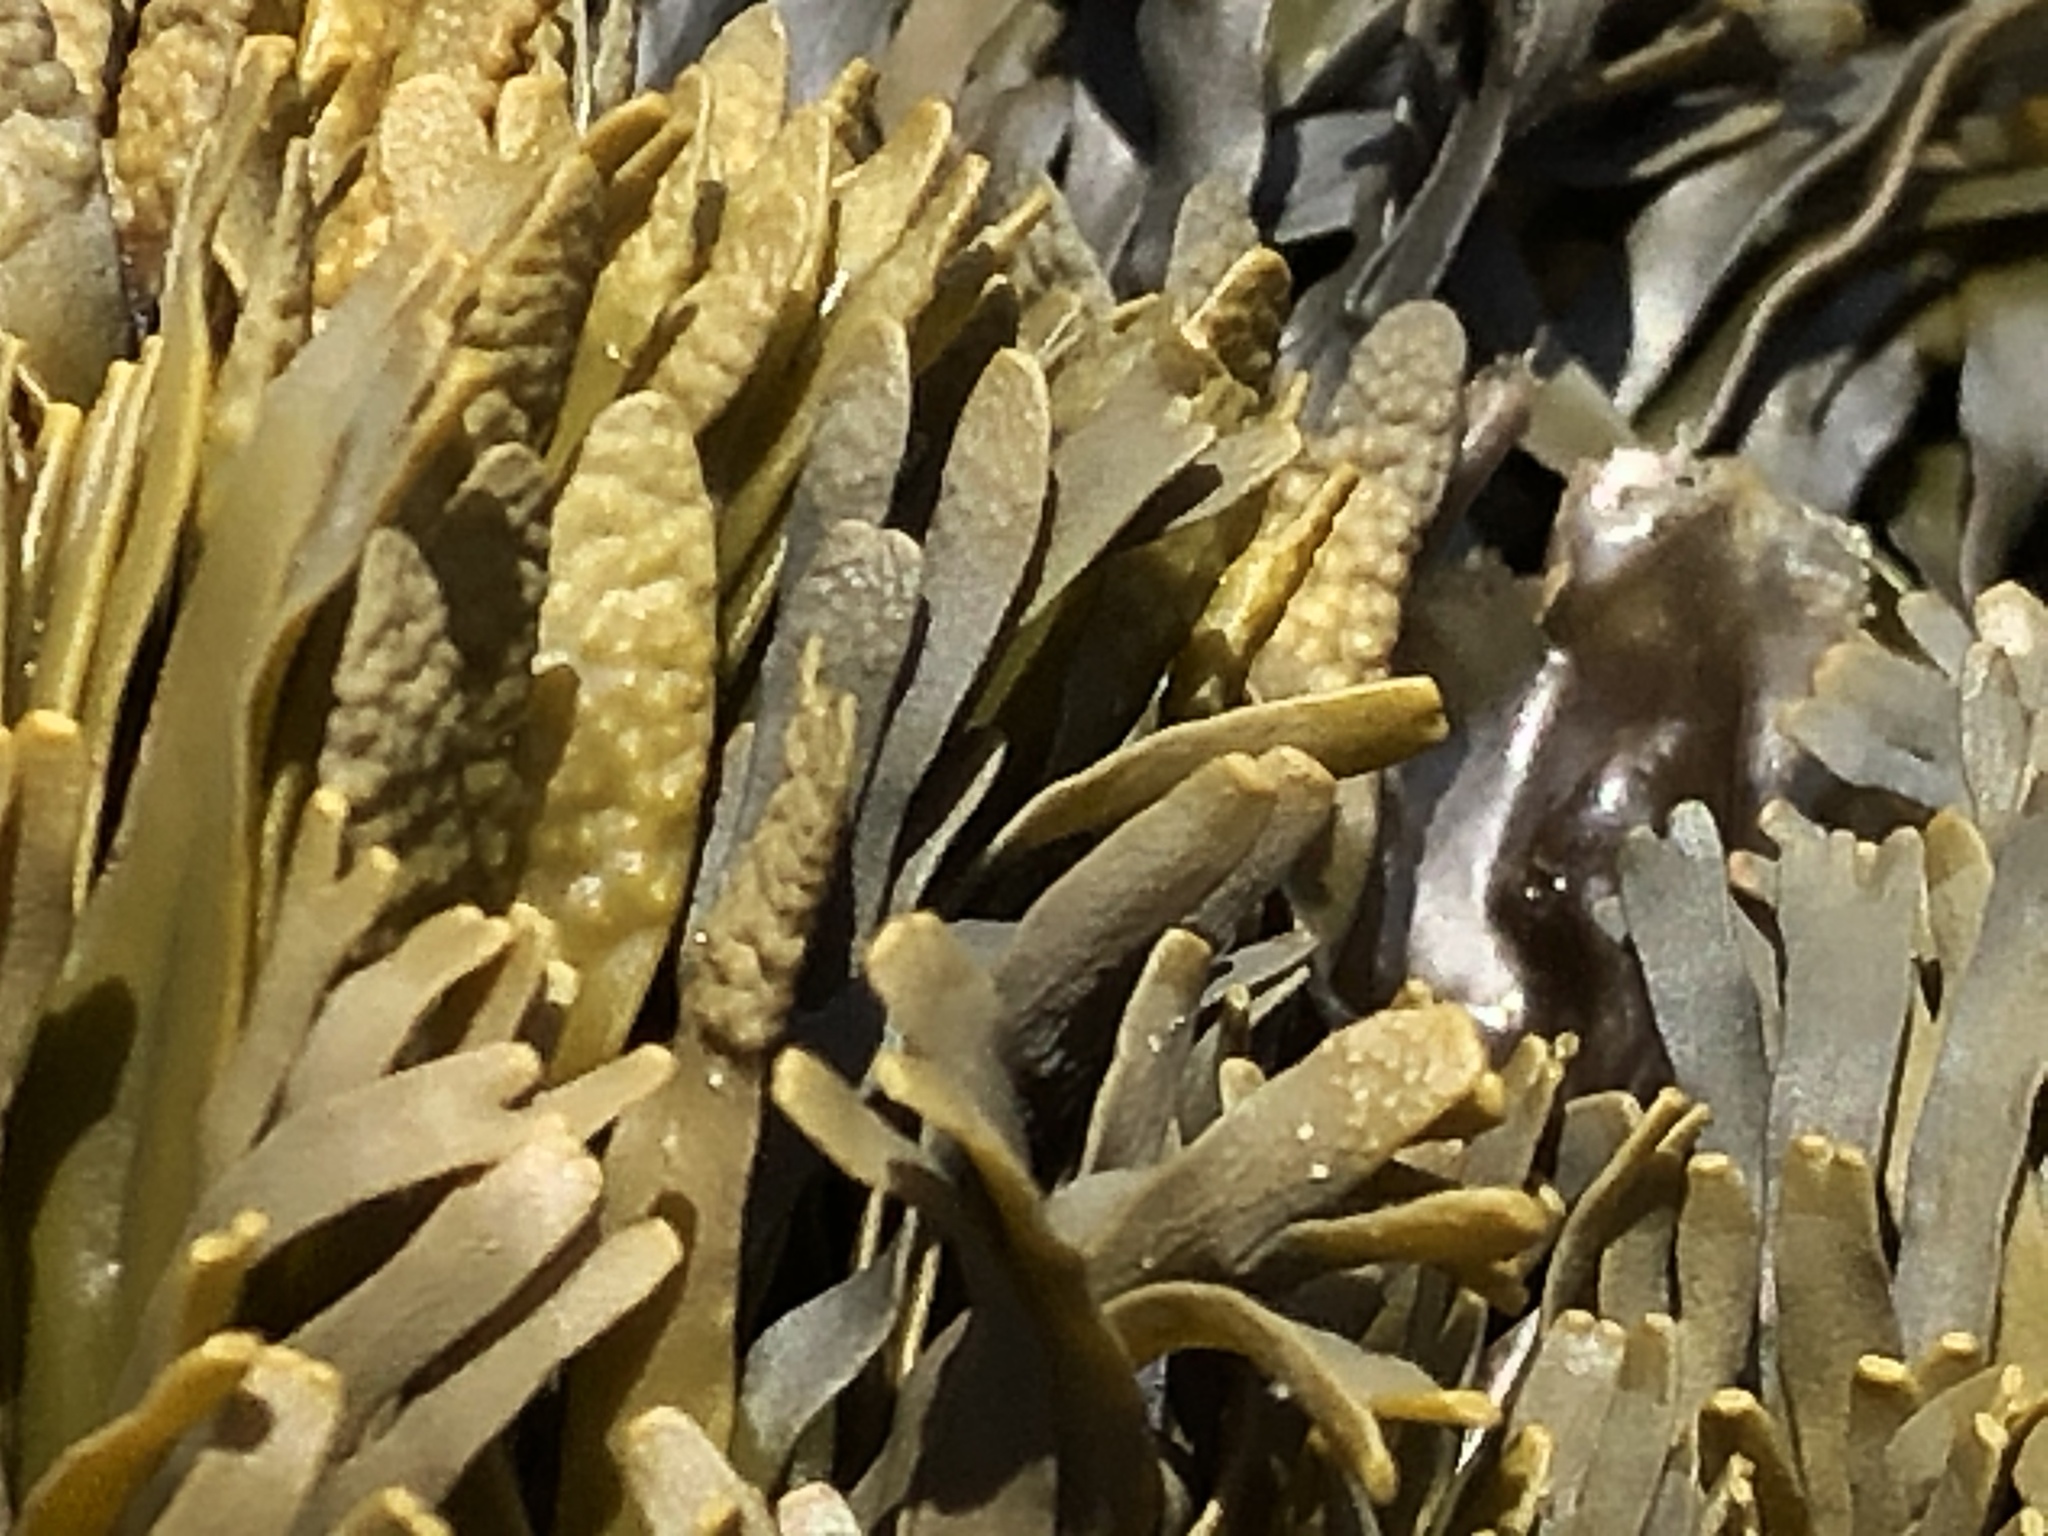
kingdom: Chromista
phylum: Ochrophyta
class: Phaeophyceae
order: Fucales
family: Fucaceae
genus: Pelvetiopsis
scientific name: Pelvetiopsis limitata
